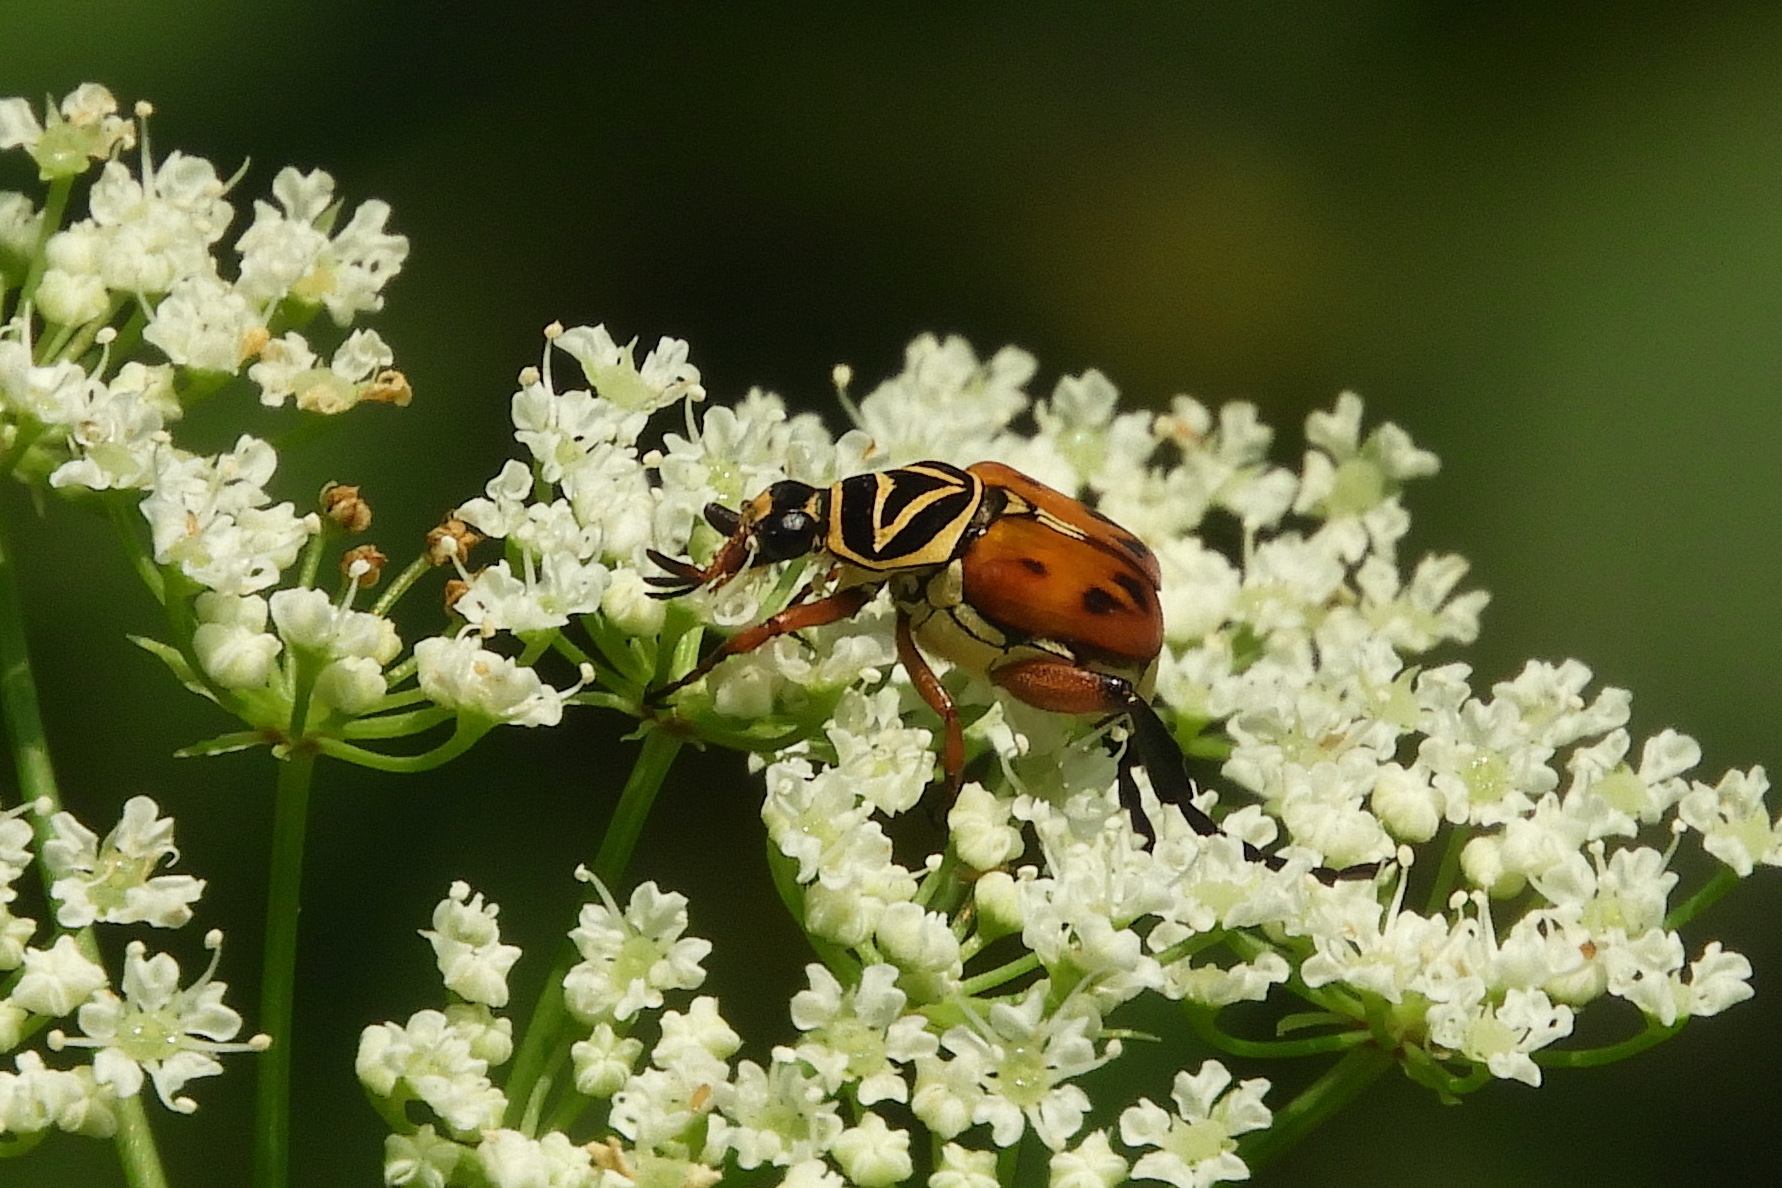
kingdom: Animalia
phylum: Arthropoda
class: Insecta
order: Coleoptera
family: Scarabaeidae
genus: Trigonopeltastes
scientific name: Trigonopeltastes delta
